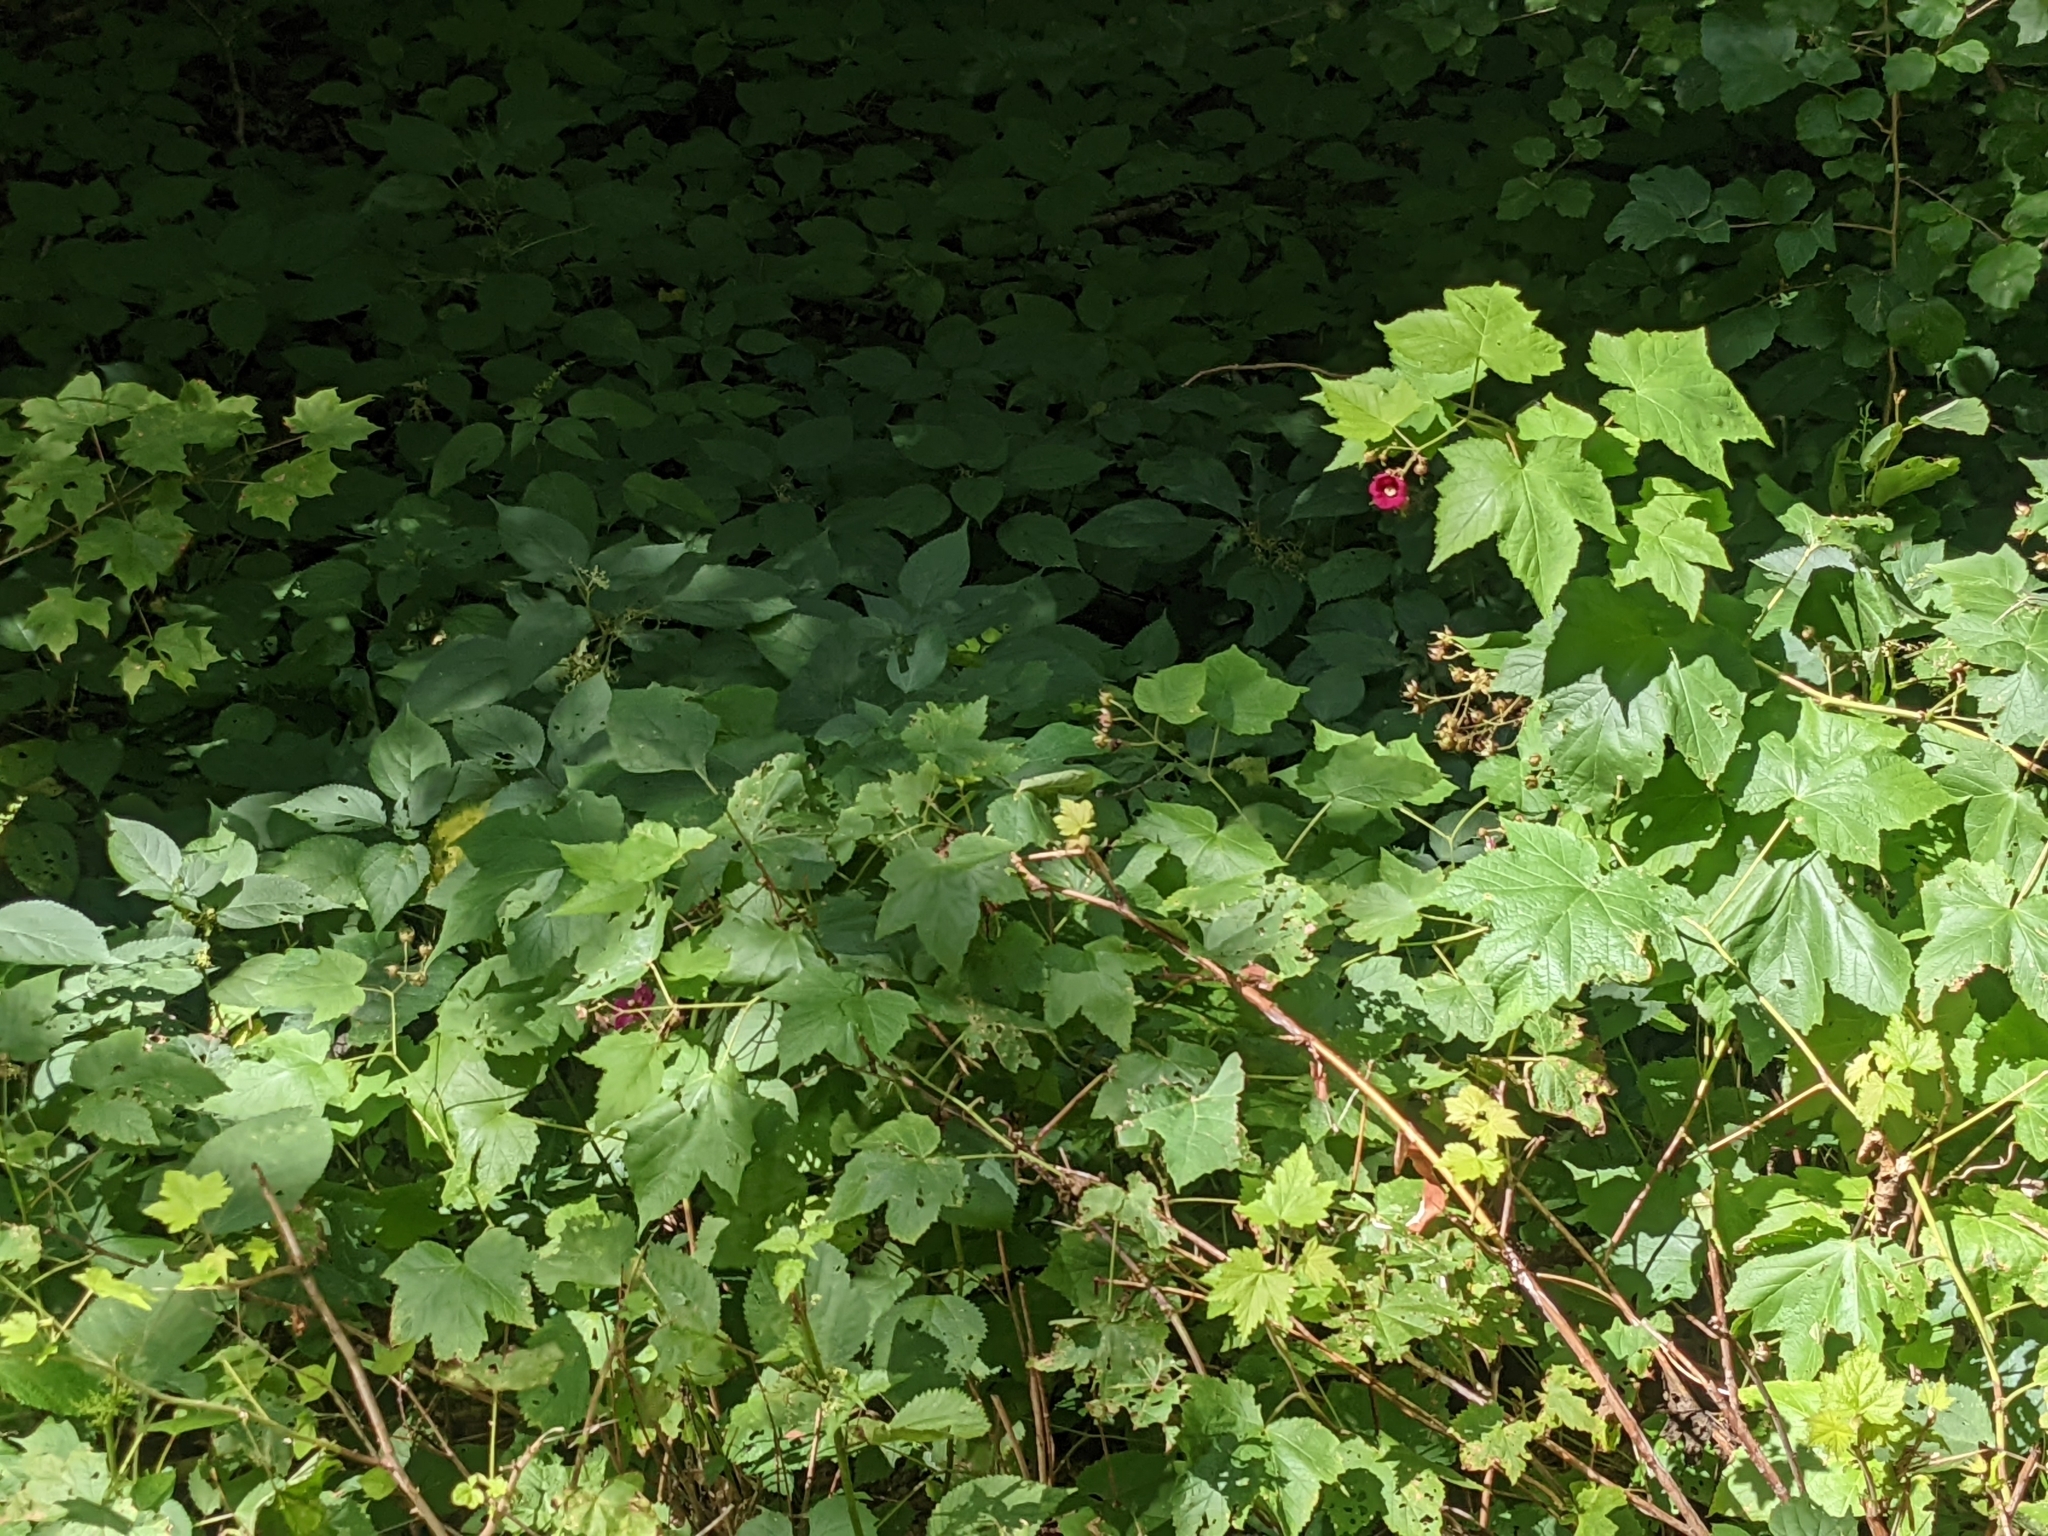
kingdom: Plantae
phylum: Tracheophyta
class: Magnoliopsida
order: Rosales
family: Rosaceae
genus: Rubus
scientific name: Rubus odoratus
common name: Purple-flowered raspberry
